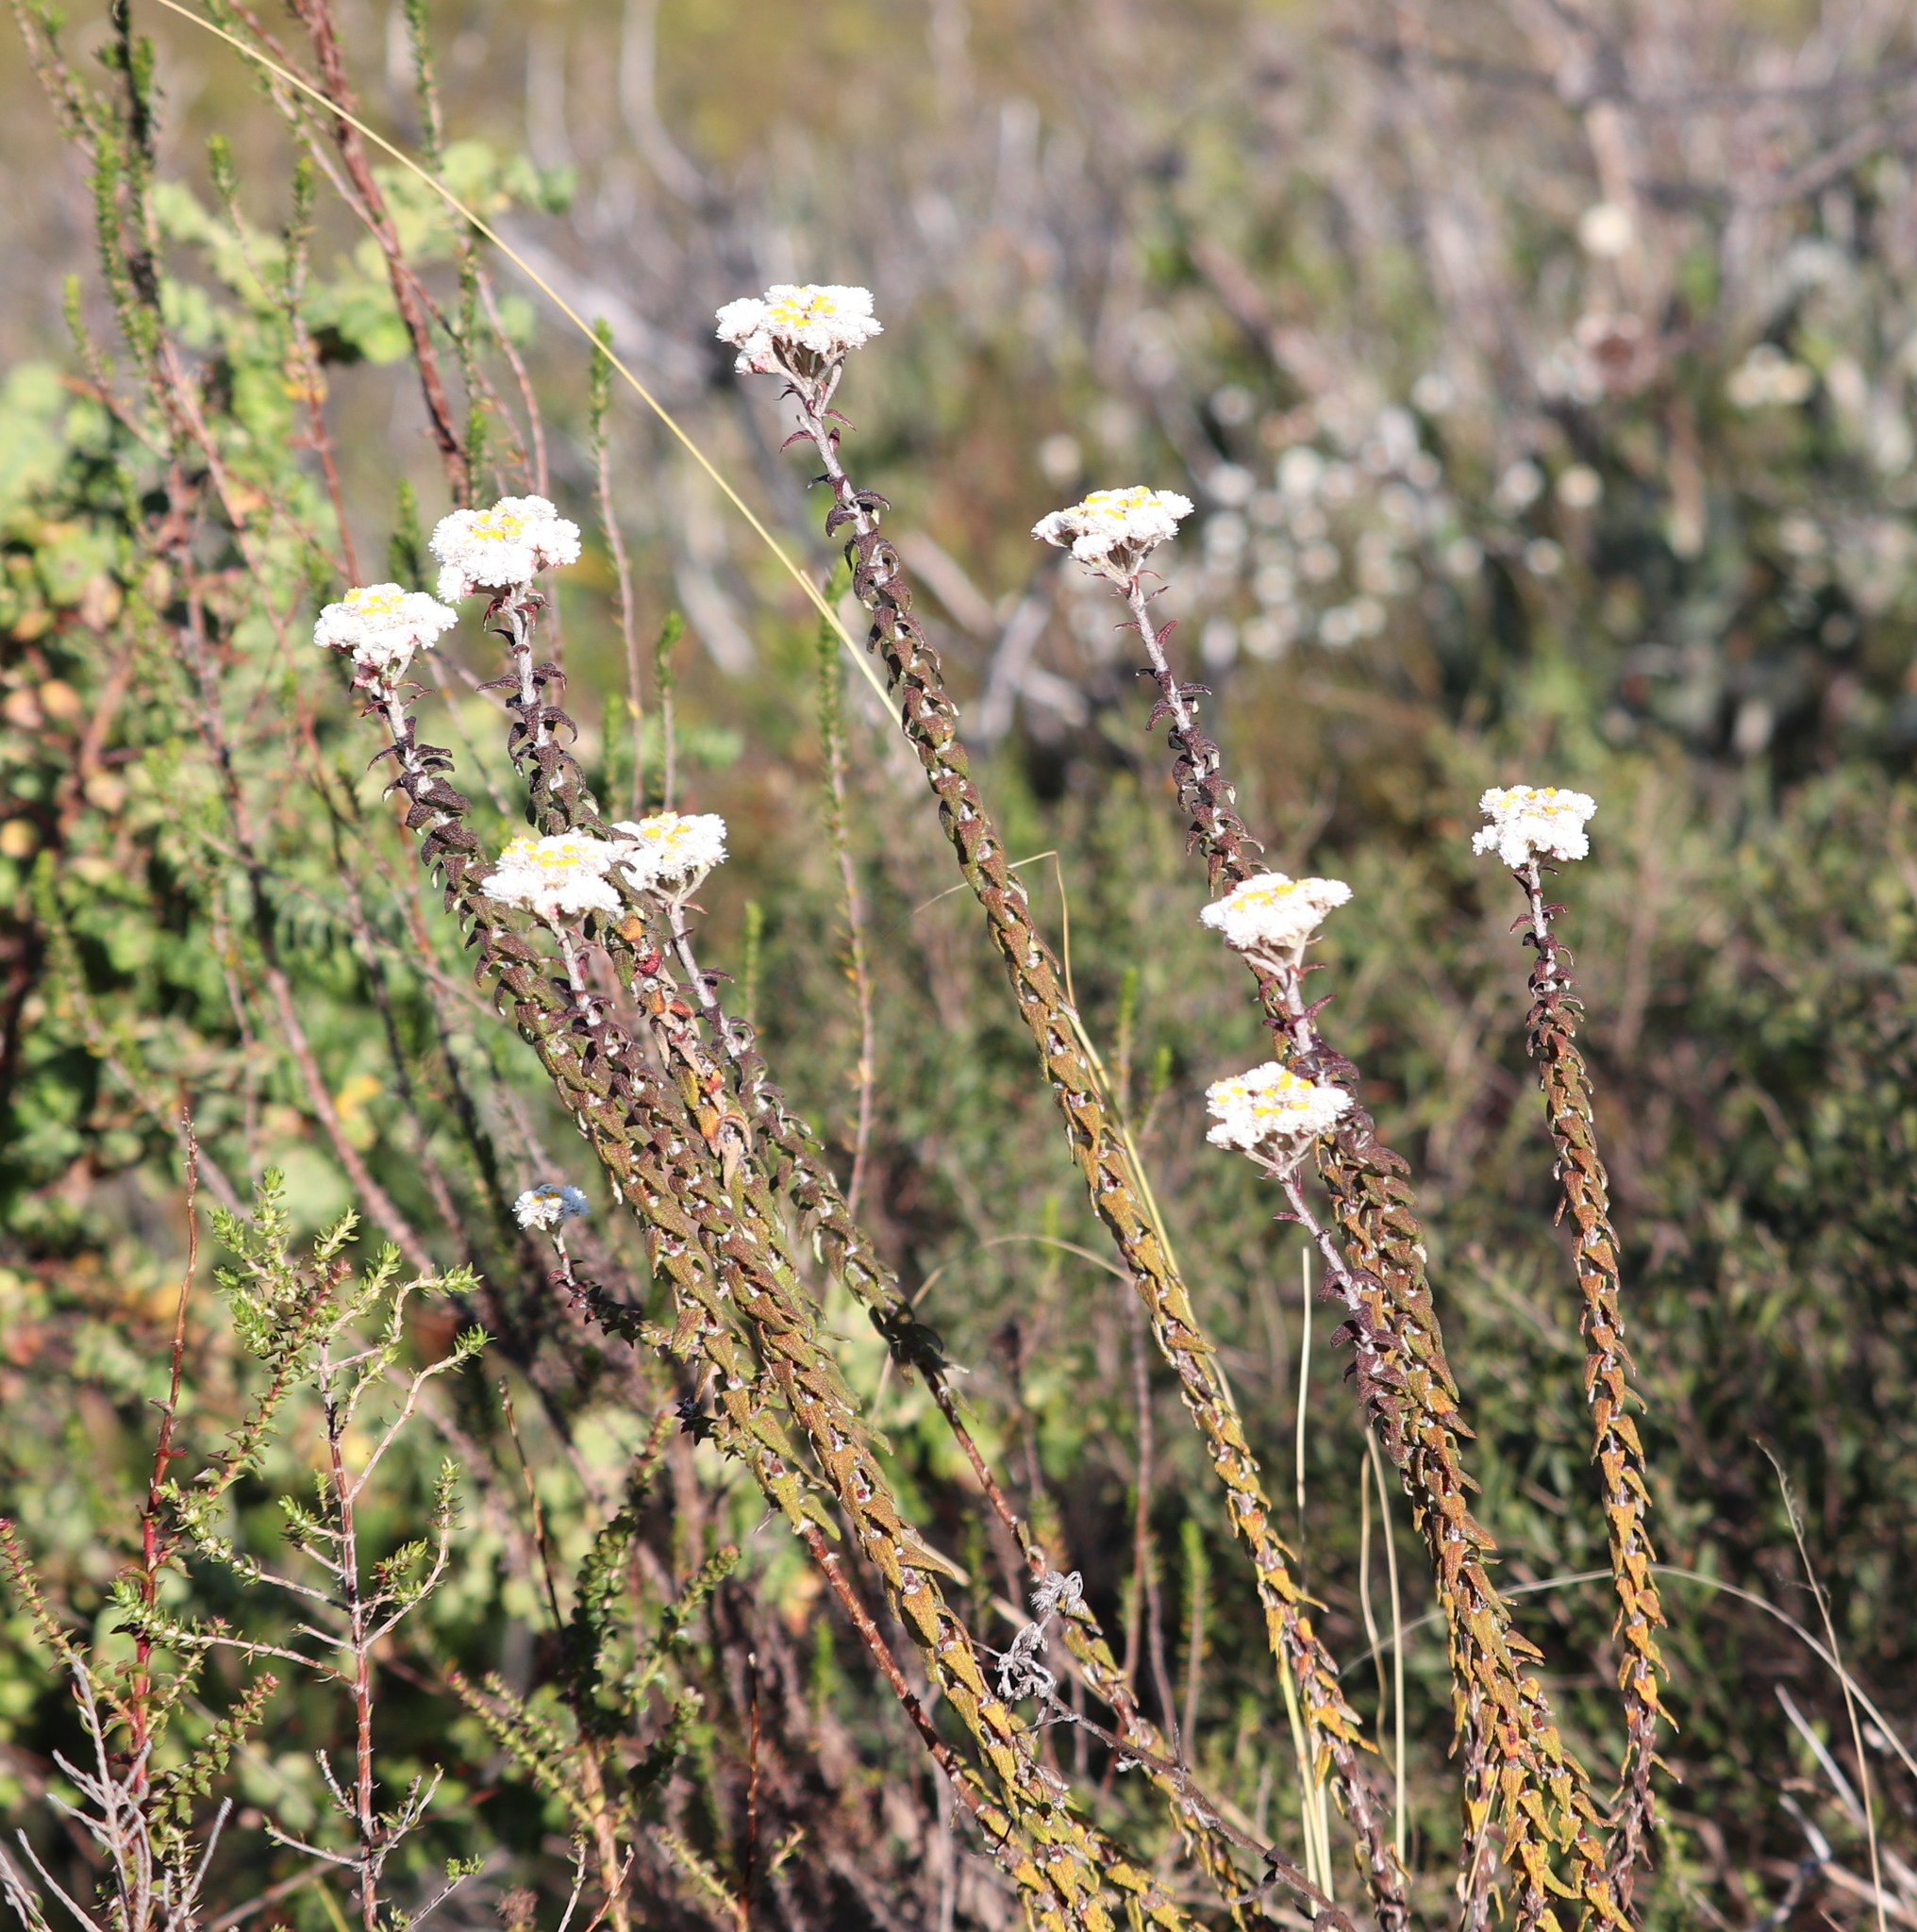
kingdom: Plantae
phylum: Tracheophyta
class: Magnoliopsida
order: Asterales
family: Asteraceae
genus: Helichrysum
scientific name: Helichrysum felinum
